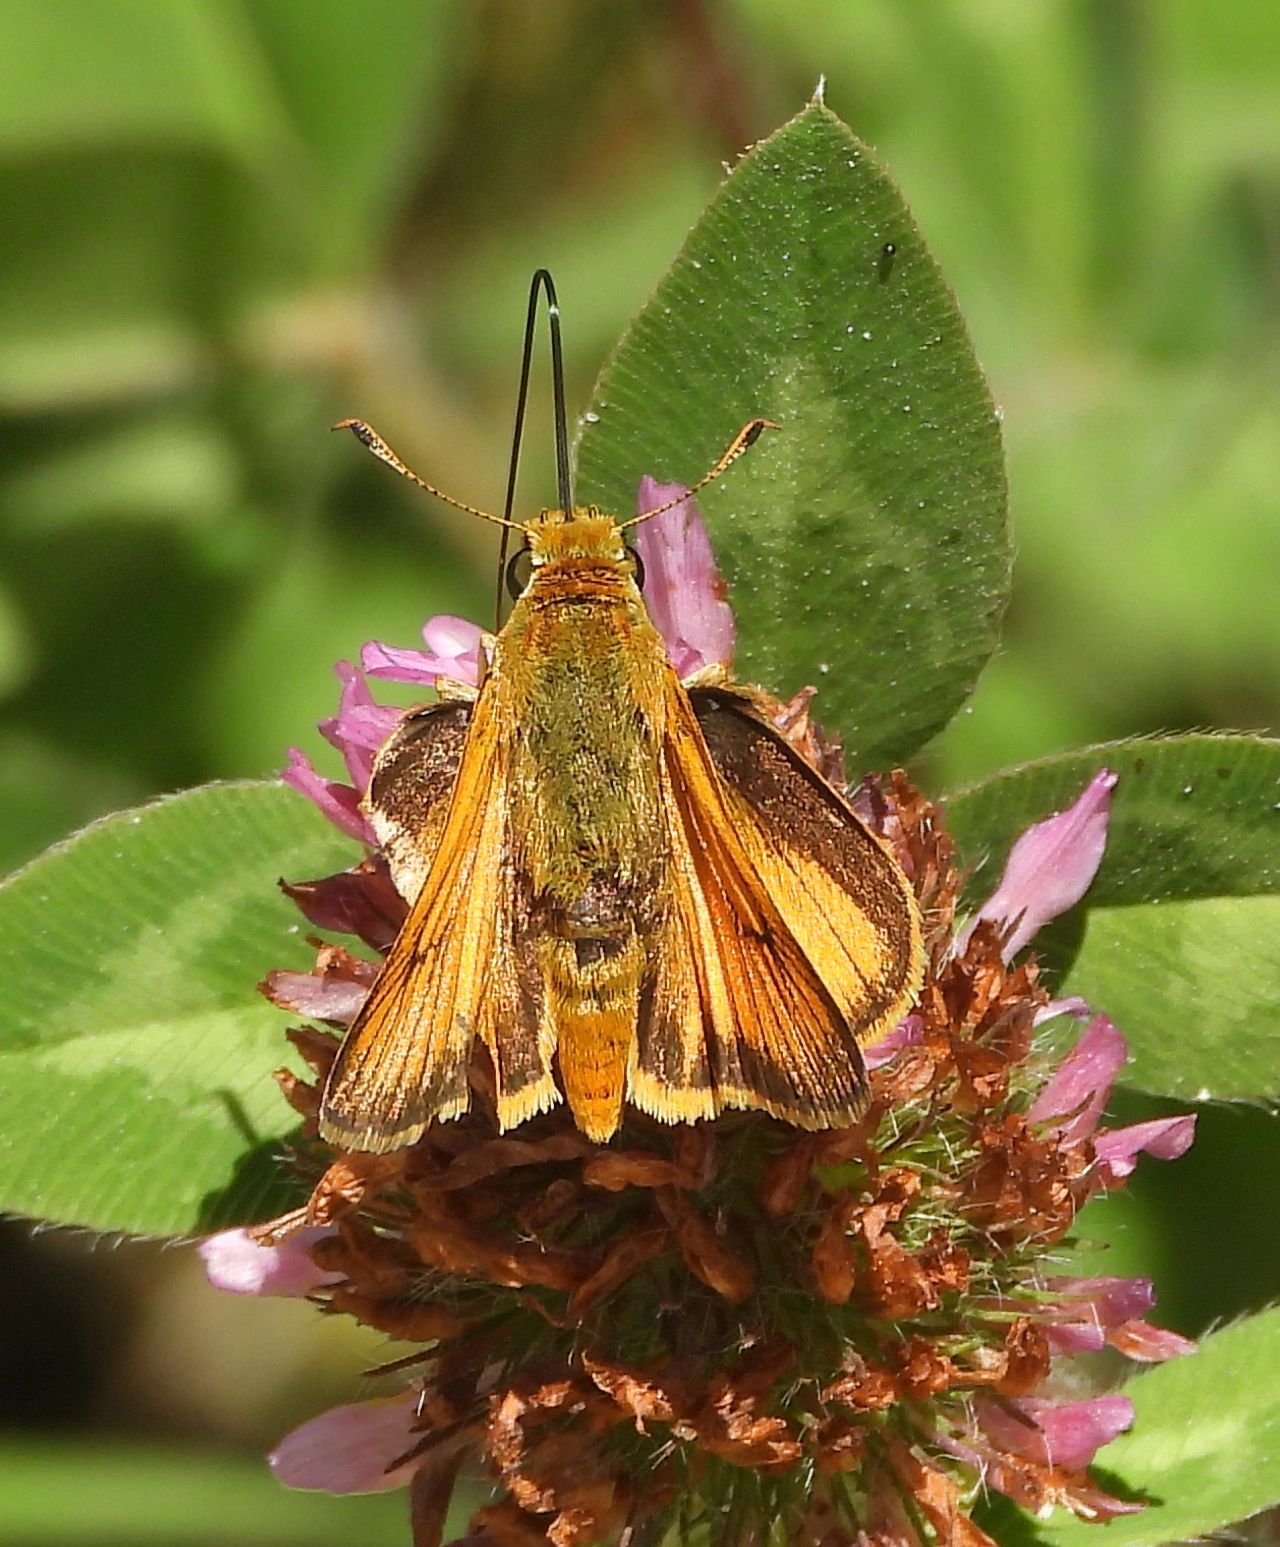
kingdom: Animalia
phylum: Arthropoda
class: Insecta
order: Lepidoptera
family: Hesperiidae
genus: Atrytone
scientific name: Atrytone delaware
